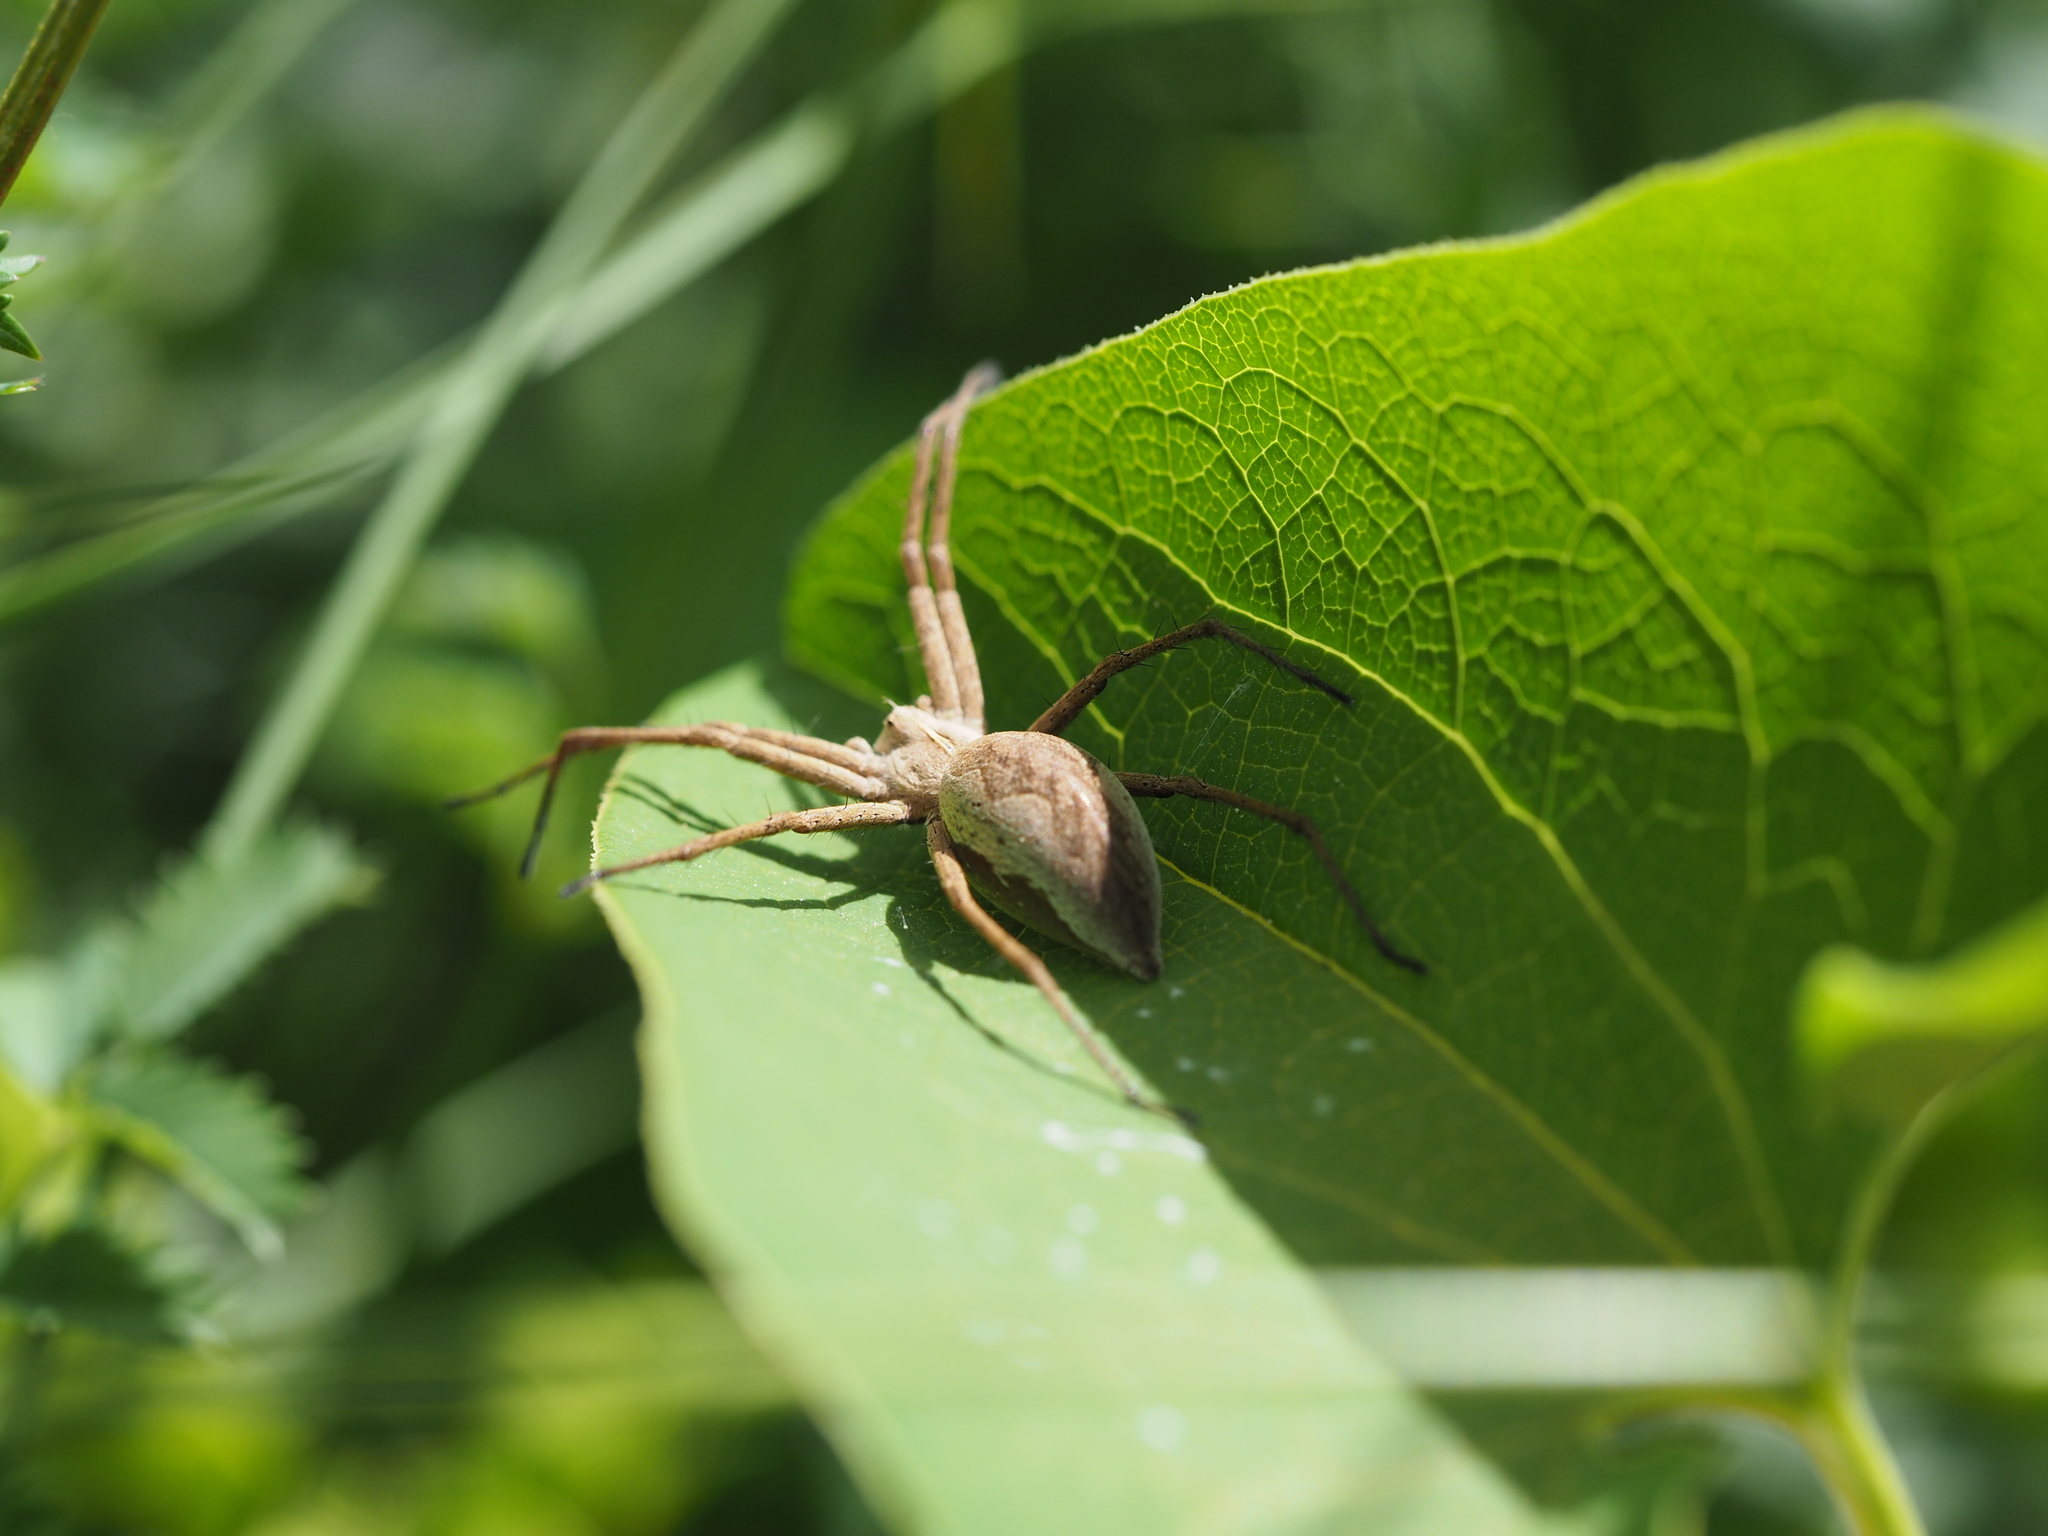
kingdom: Animalia
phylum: Arthropoda
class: Arachnida
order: Araneae
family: Pisauridae
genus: Pisaura
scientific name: Pisaura mirabilis
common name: Tent spider
